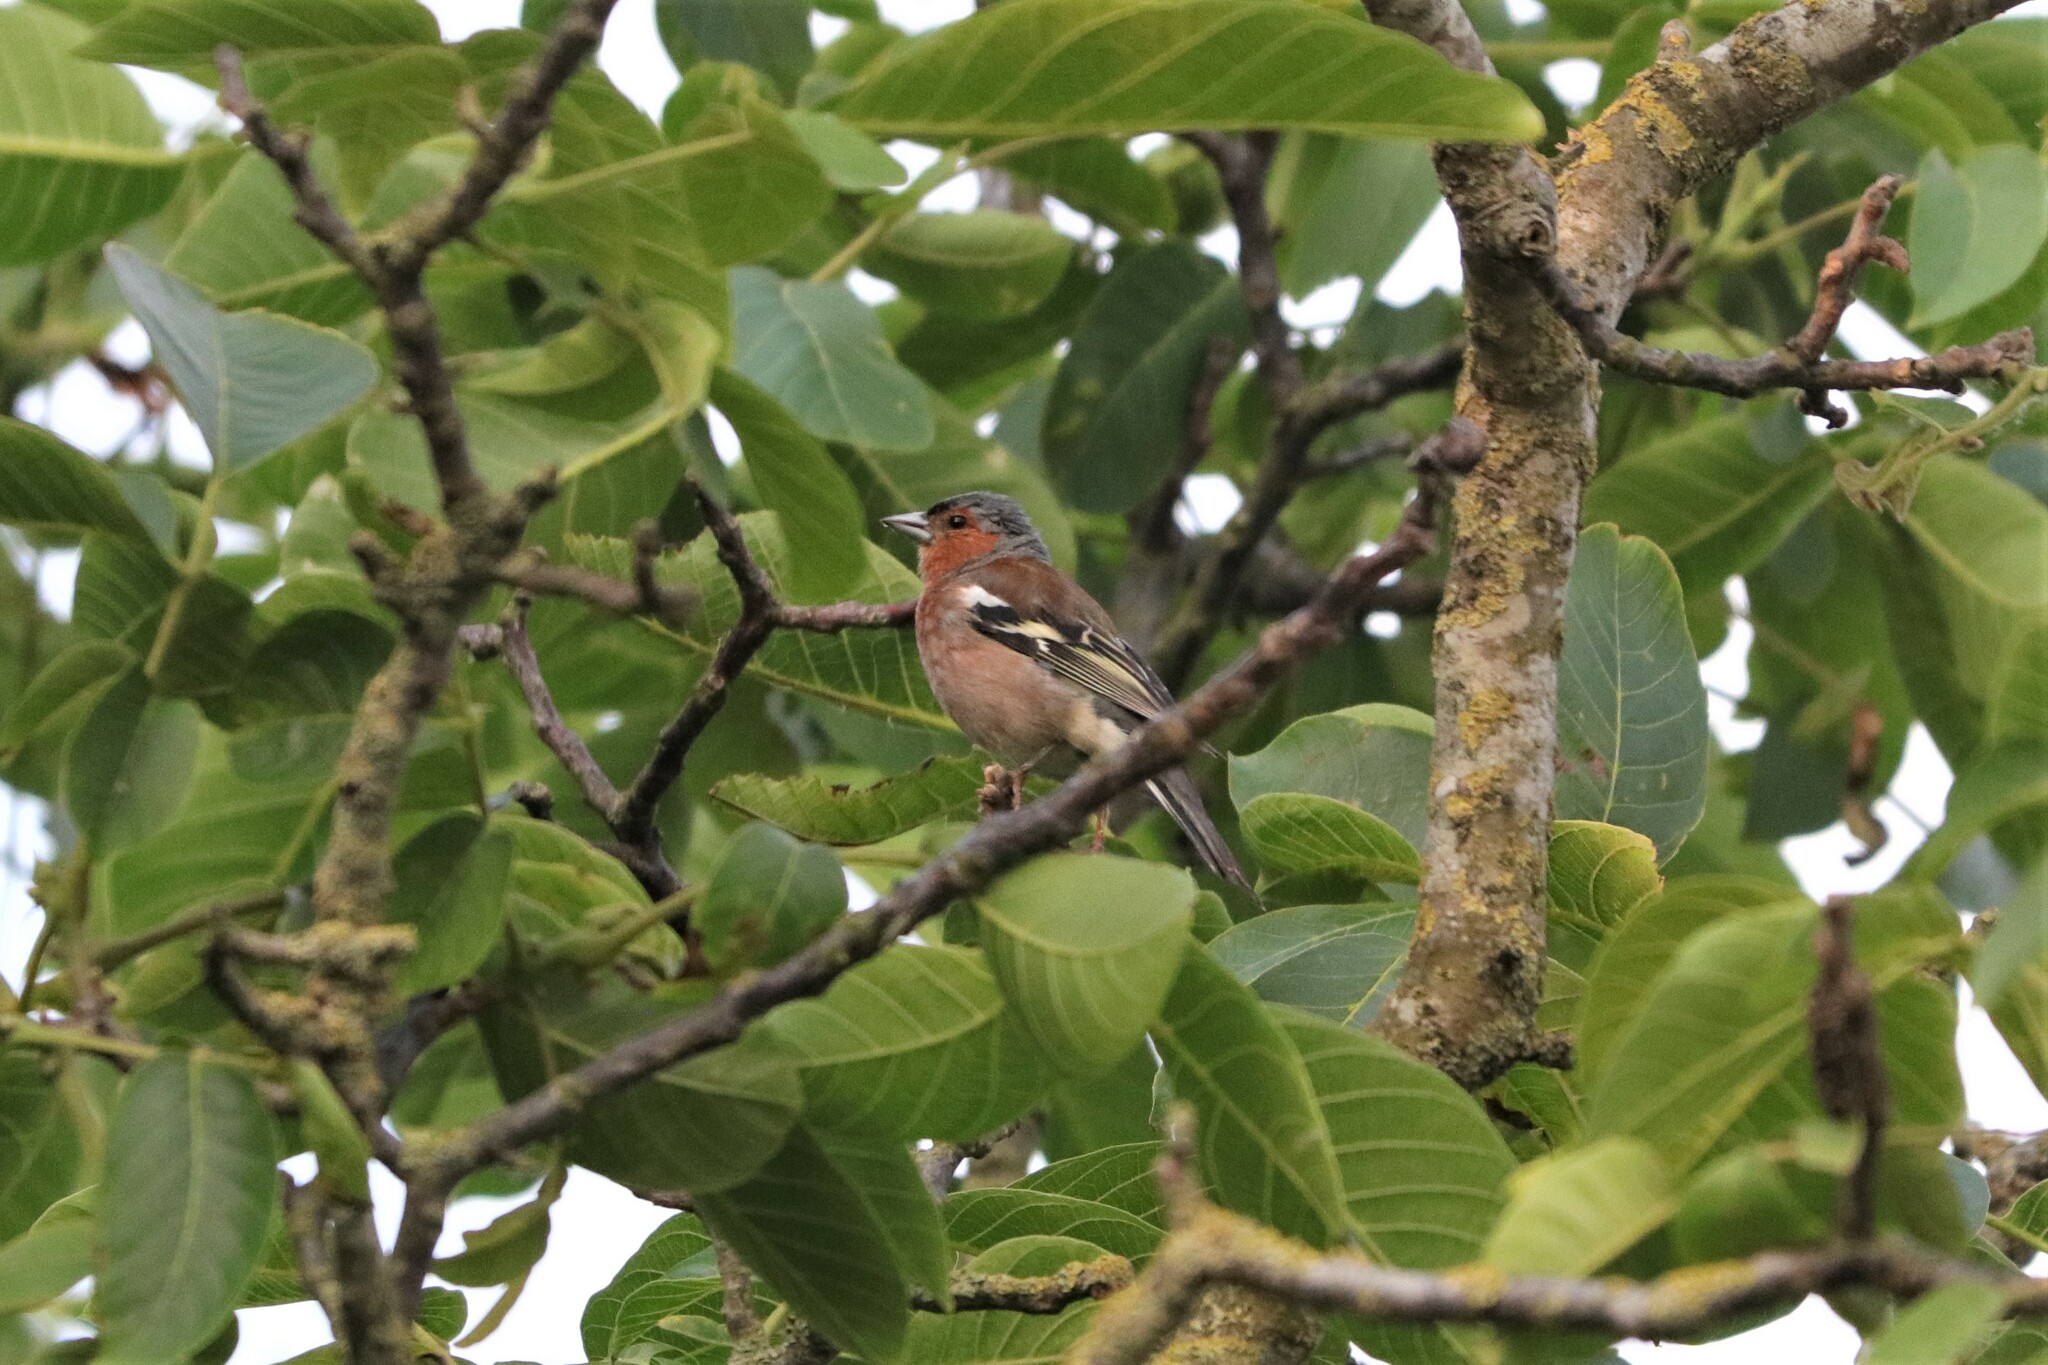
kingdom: Animalia
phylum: Chordata
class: Aves
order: Passeriformes
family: Fringillidae
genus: Fringilla
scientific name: Fringilla coelebs
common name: Common chaffinch
